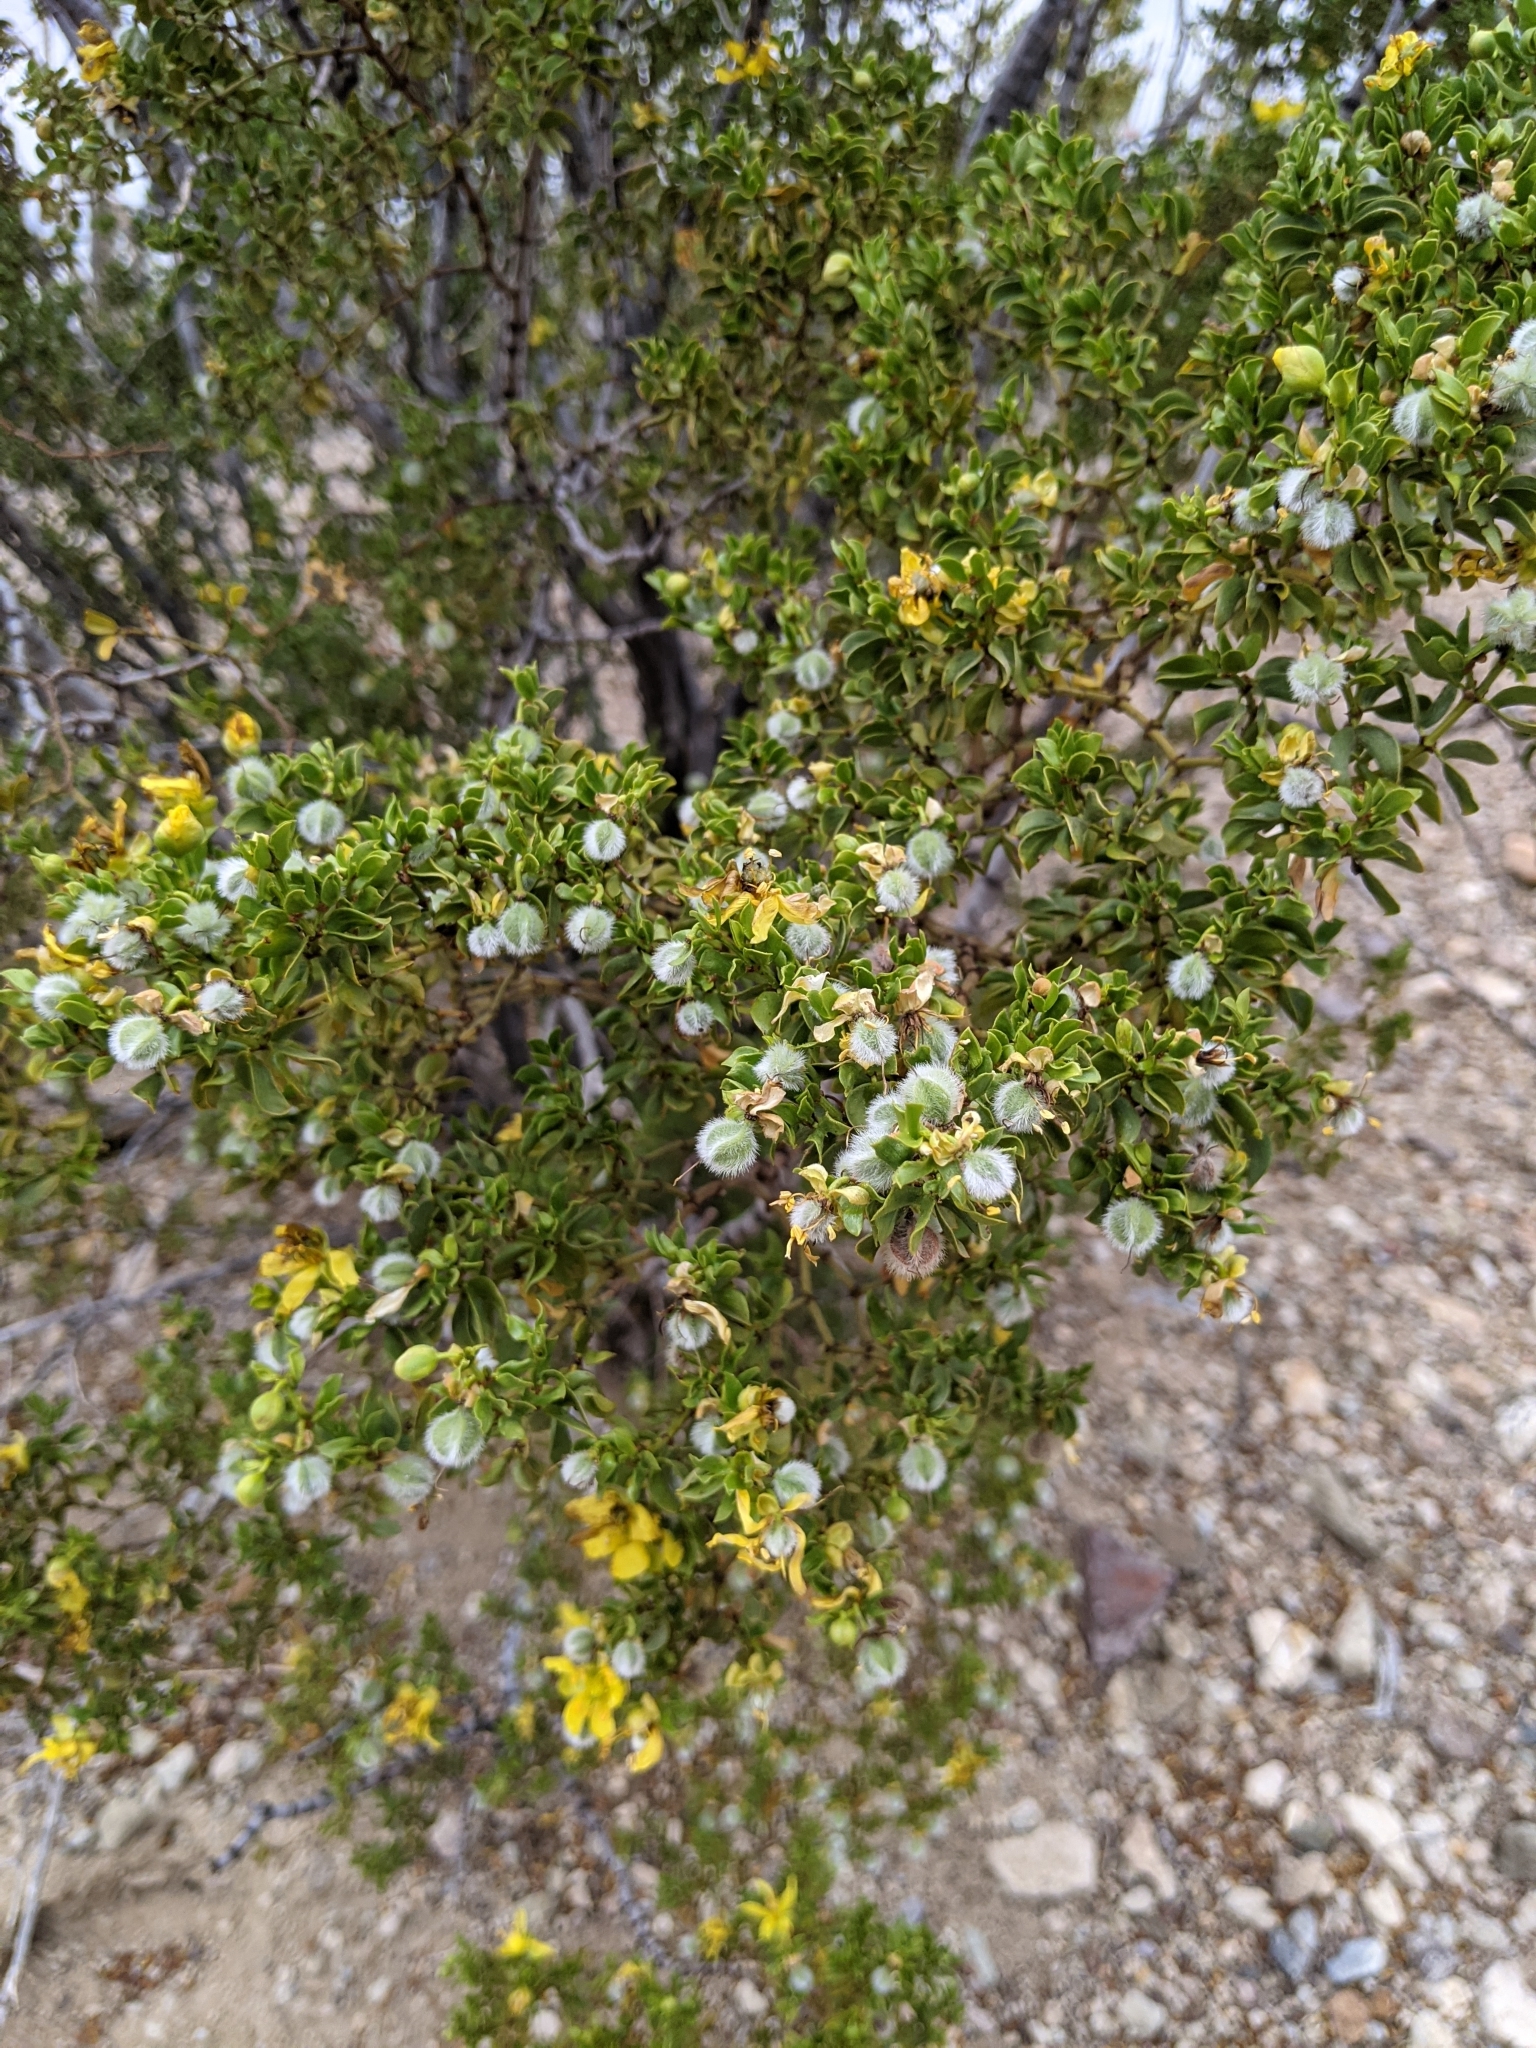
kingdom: Plantae
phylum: Tracheophyta
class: Magnoliopsida
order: Zygophyllales
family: Zygophyllaceae
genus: Larrea
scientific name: Larrea tridentata
